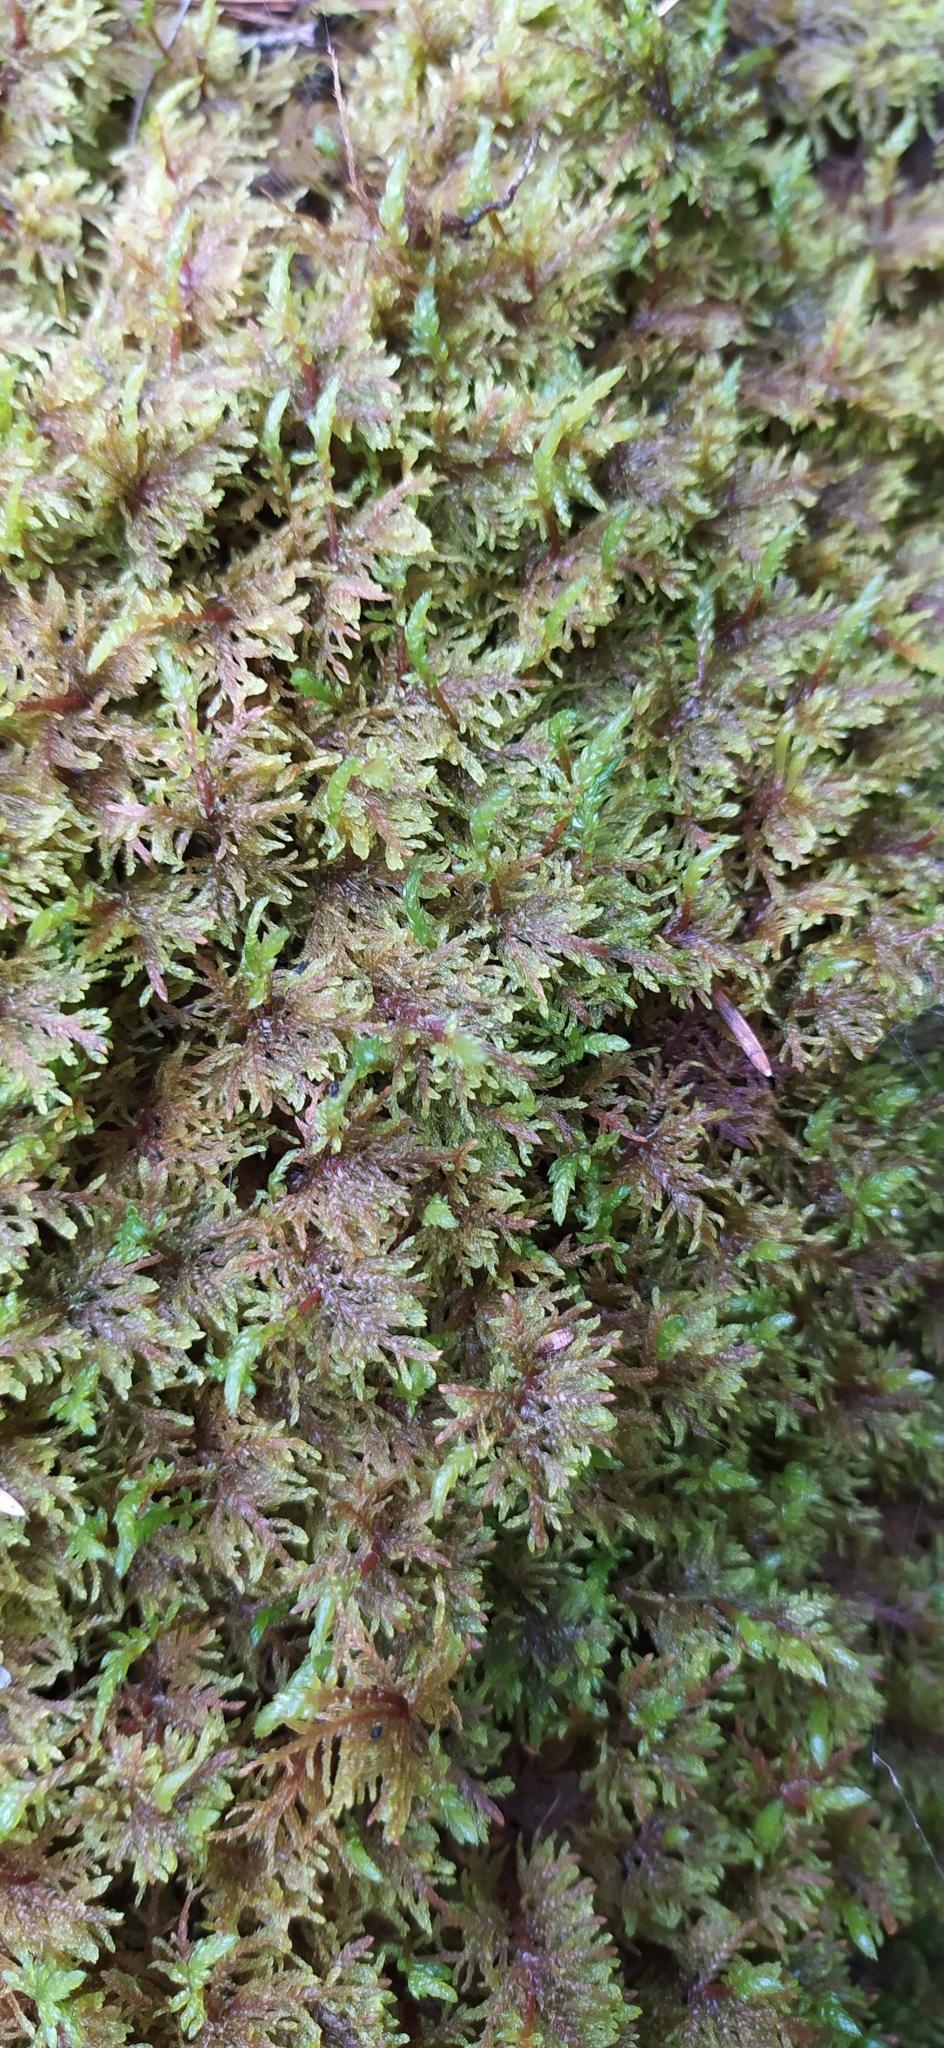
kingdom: Plantae
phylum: Bryophyta
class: Bryopsida
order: Hypnales
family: Hylocomiaceae
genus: Hylocomium
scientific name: Hylocomium splendens
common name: Stairstep moss
